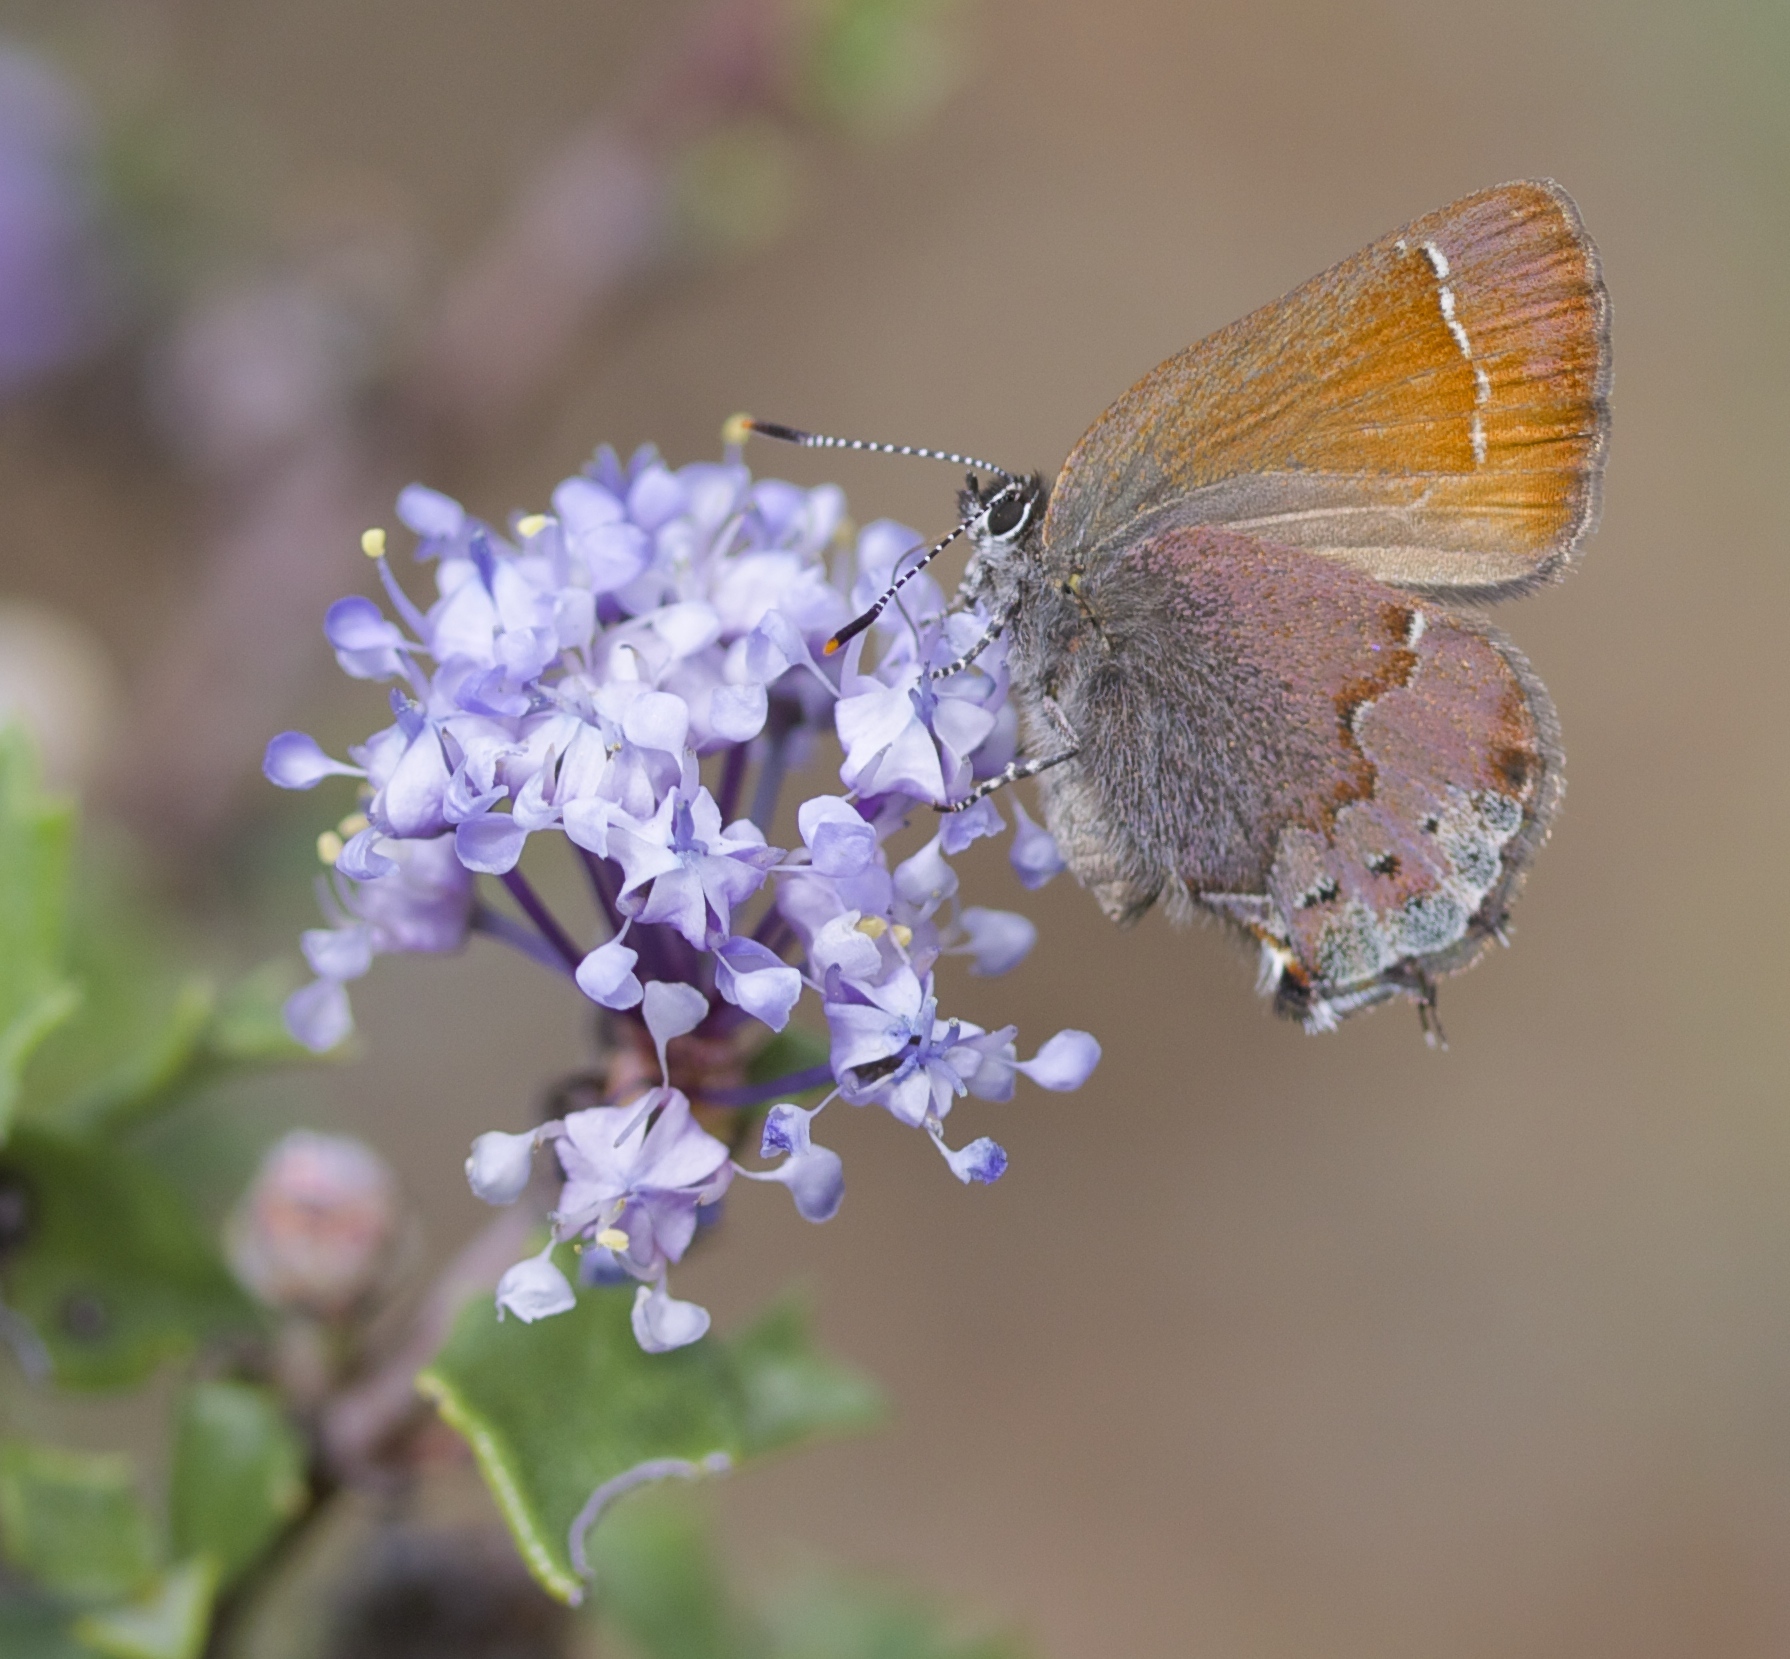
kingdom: Animalia
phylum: Arthropoda
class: Insecta
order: Lepidoptera
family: Lycaenidae
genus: Callophrys
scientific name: Callophrys muiri
